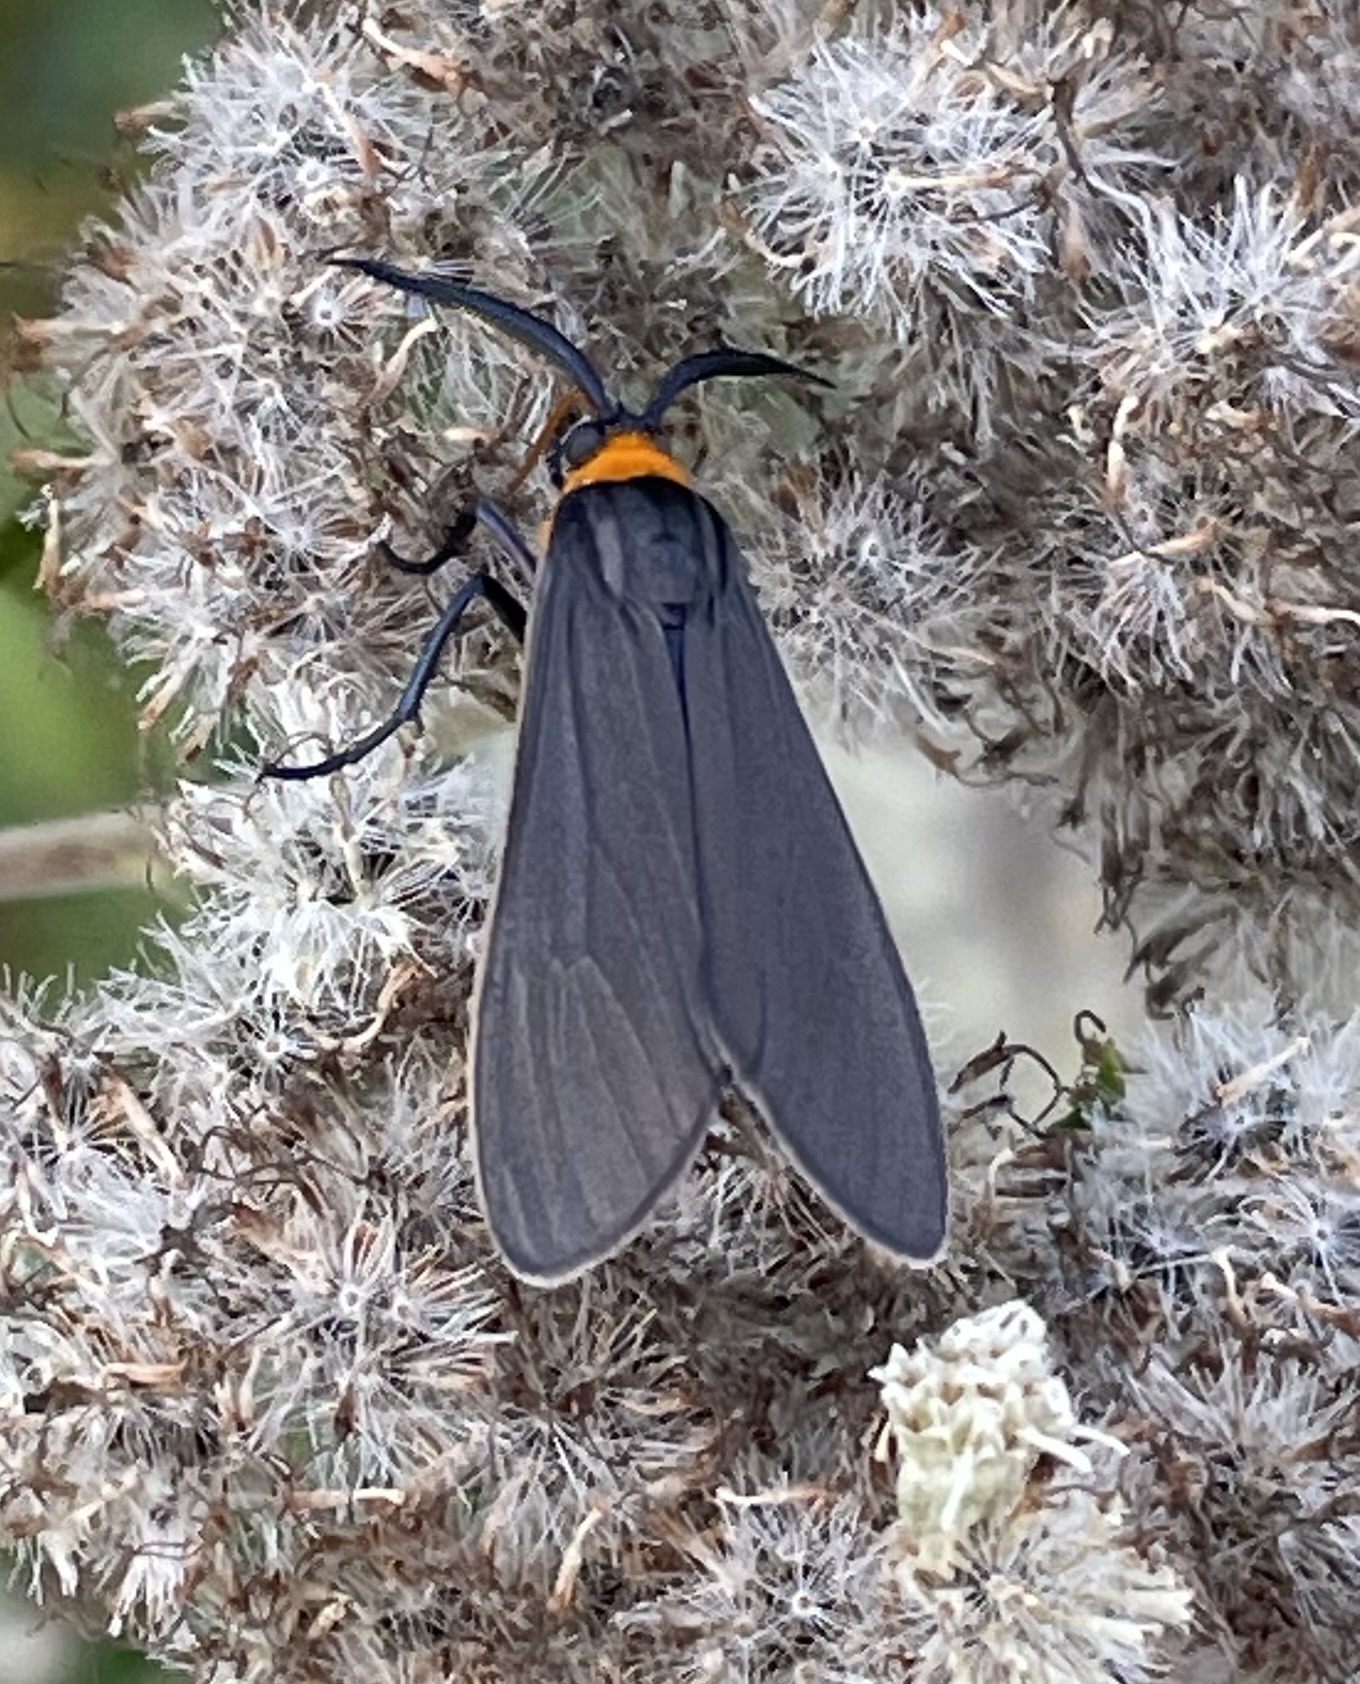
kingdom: Animalia
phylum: Arthropoda
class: Insecta
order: Lepidoptera
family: Erebidae
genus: Cisseps
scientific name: Cisseps fulvicollis
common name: Yellow-collared scape moth
